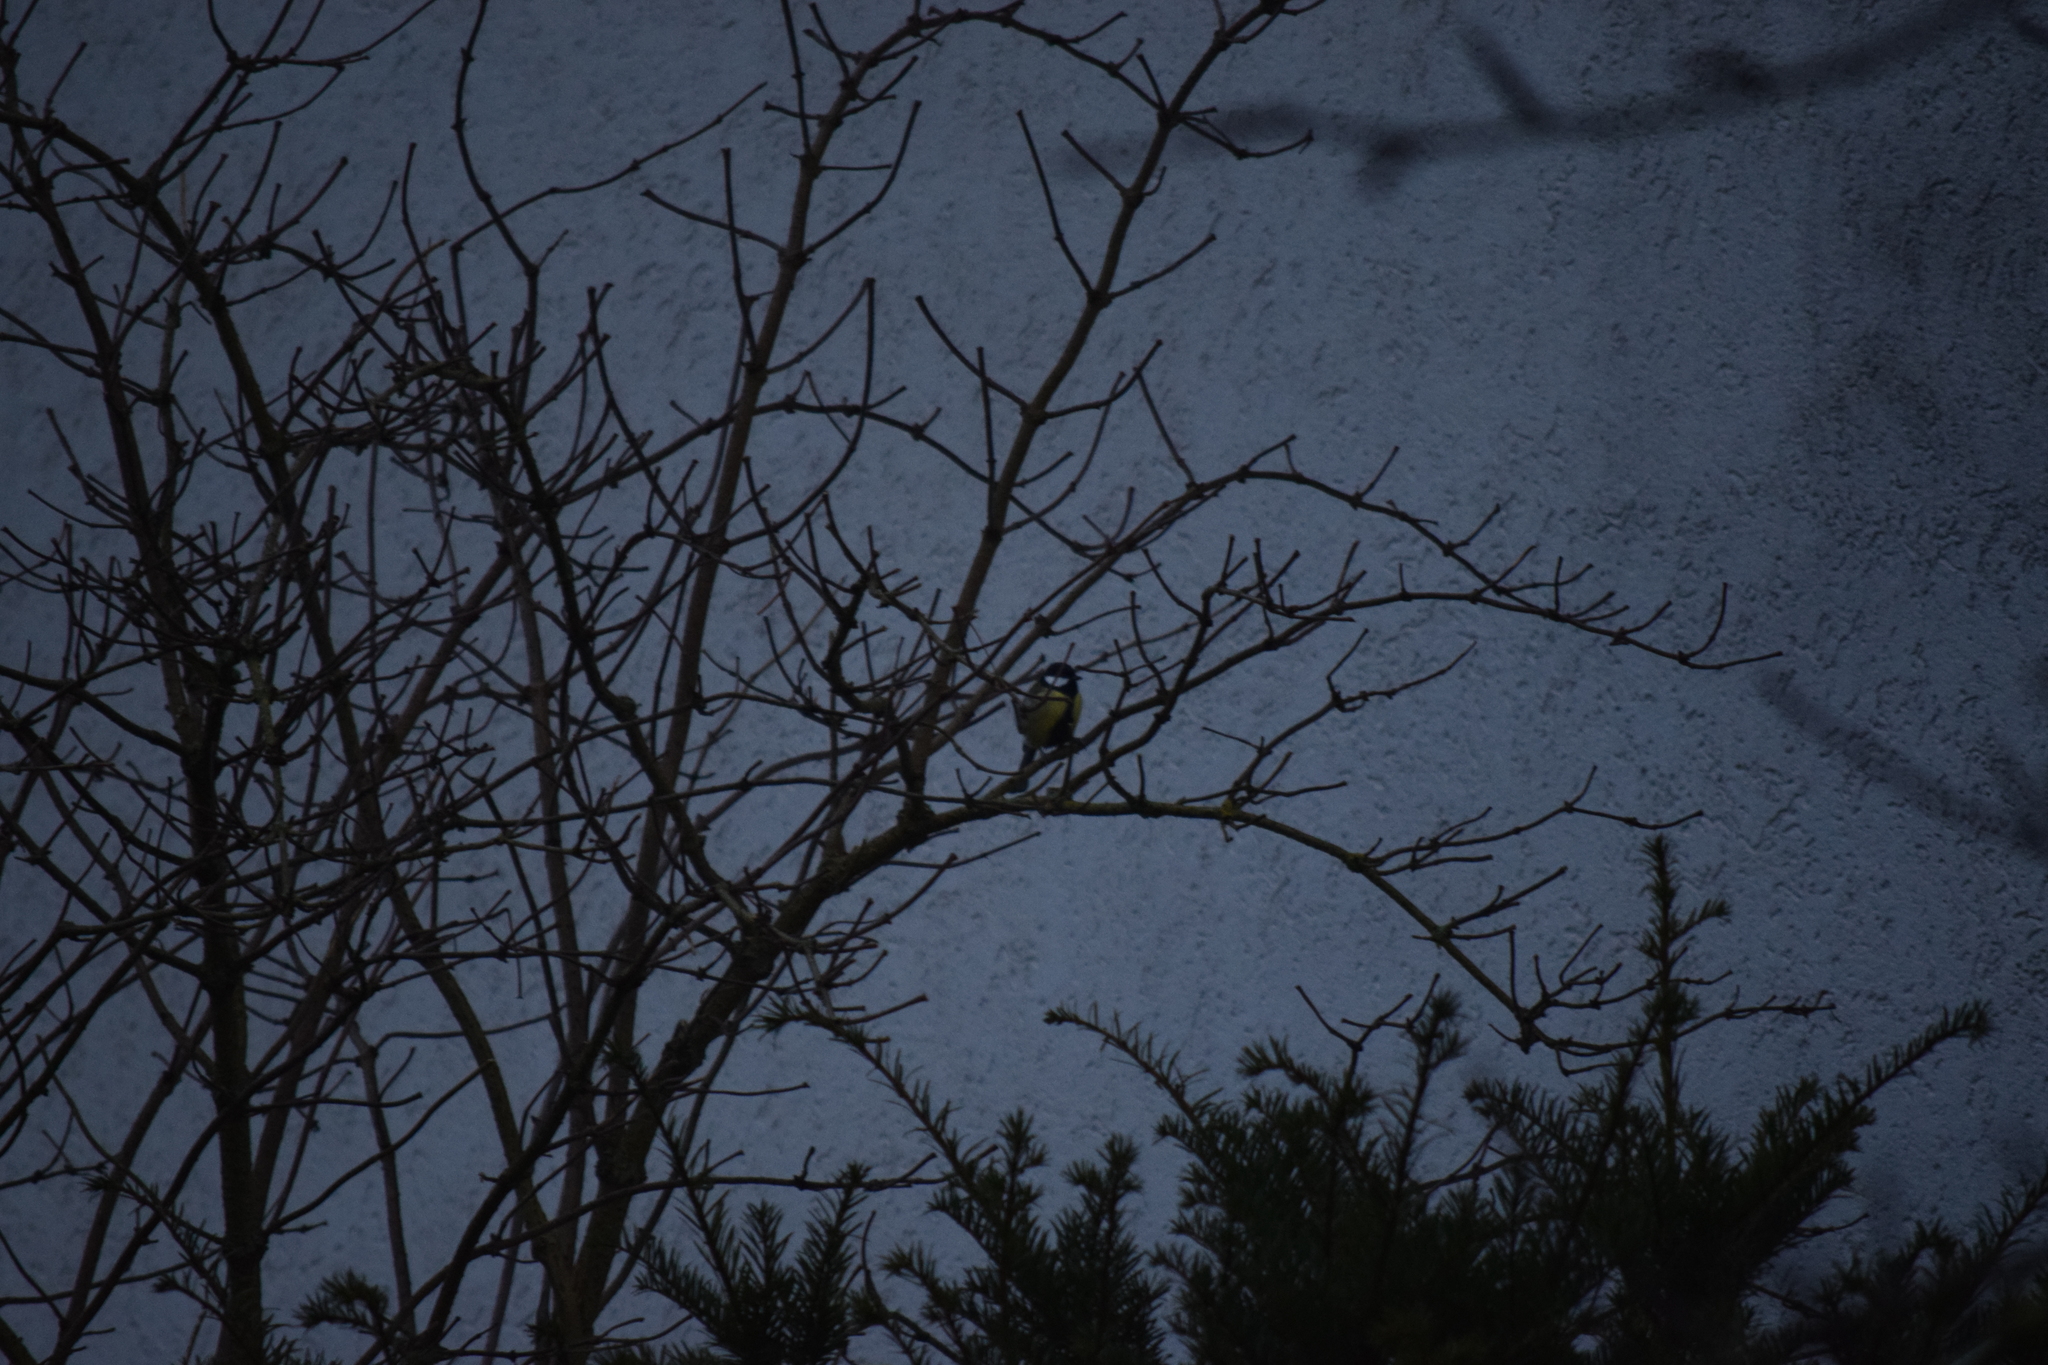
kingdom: Animalia
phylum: Chordata
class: Aves
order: Passeriformes
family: Paridae
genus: Parus
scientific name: Parus major
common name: Great tit
